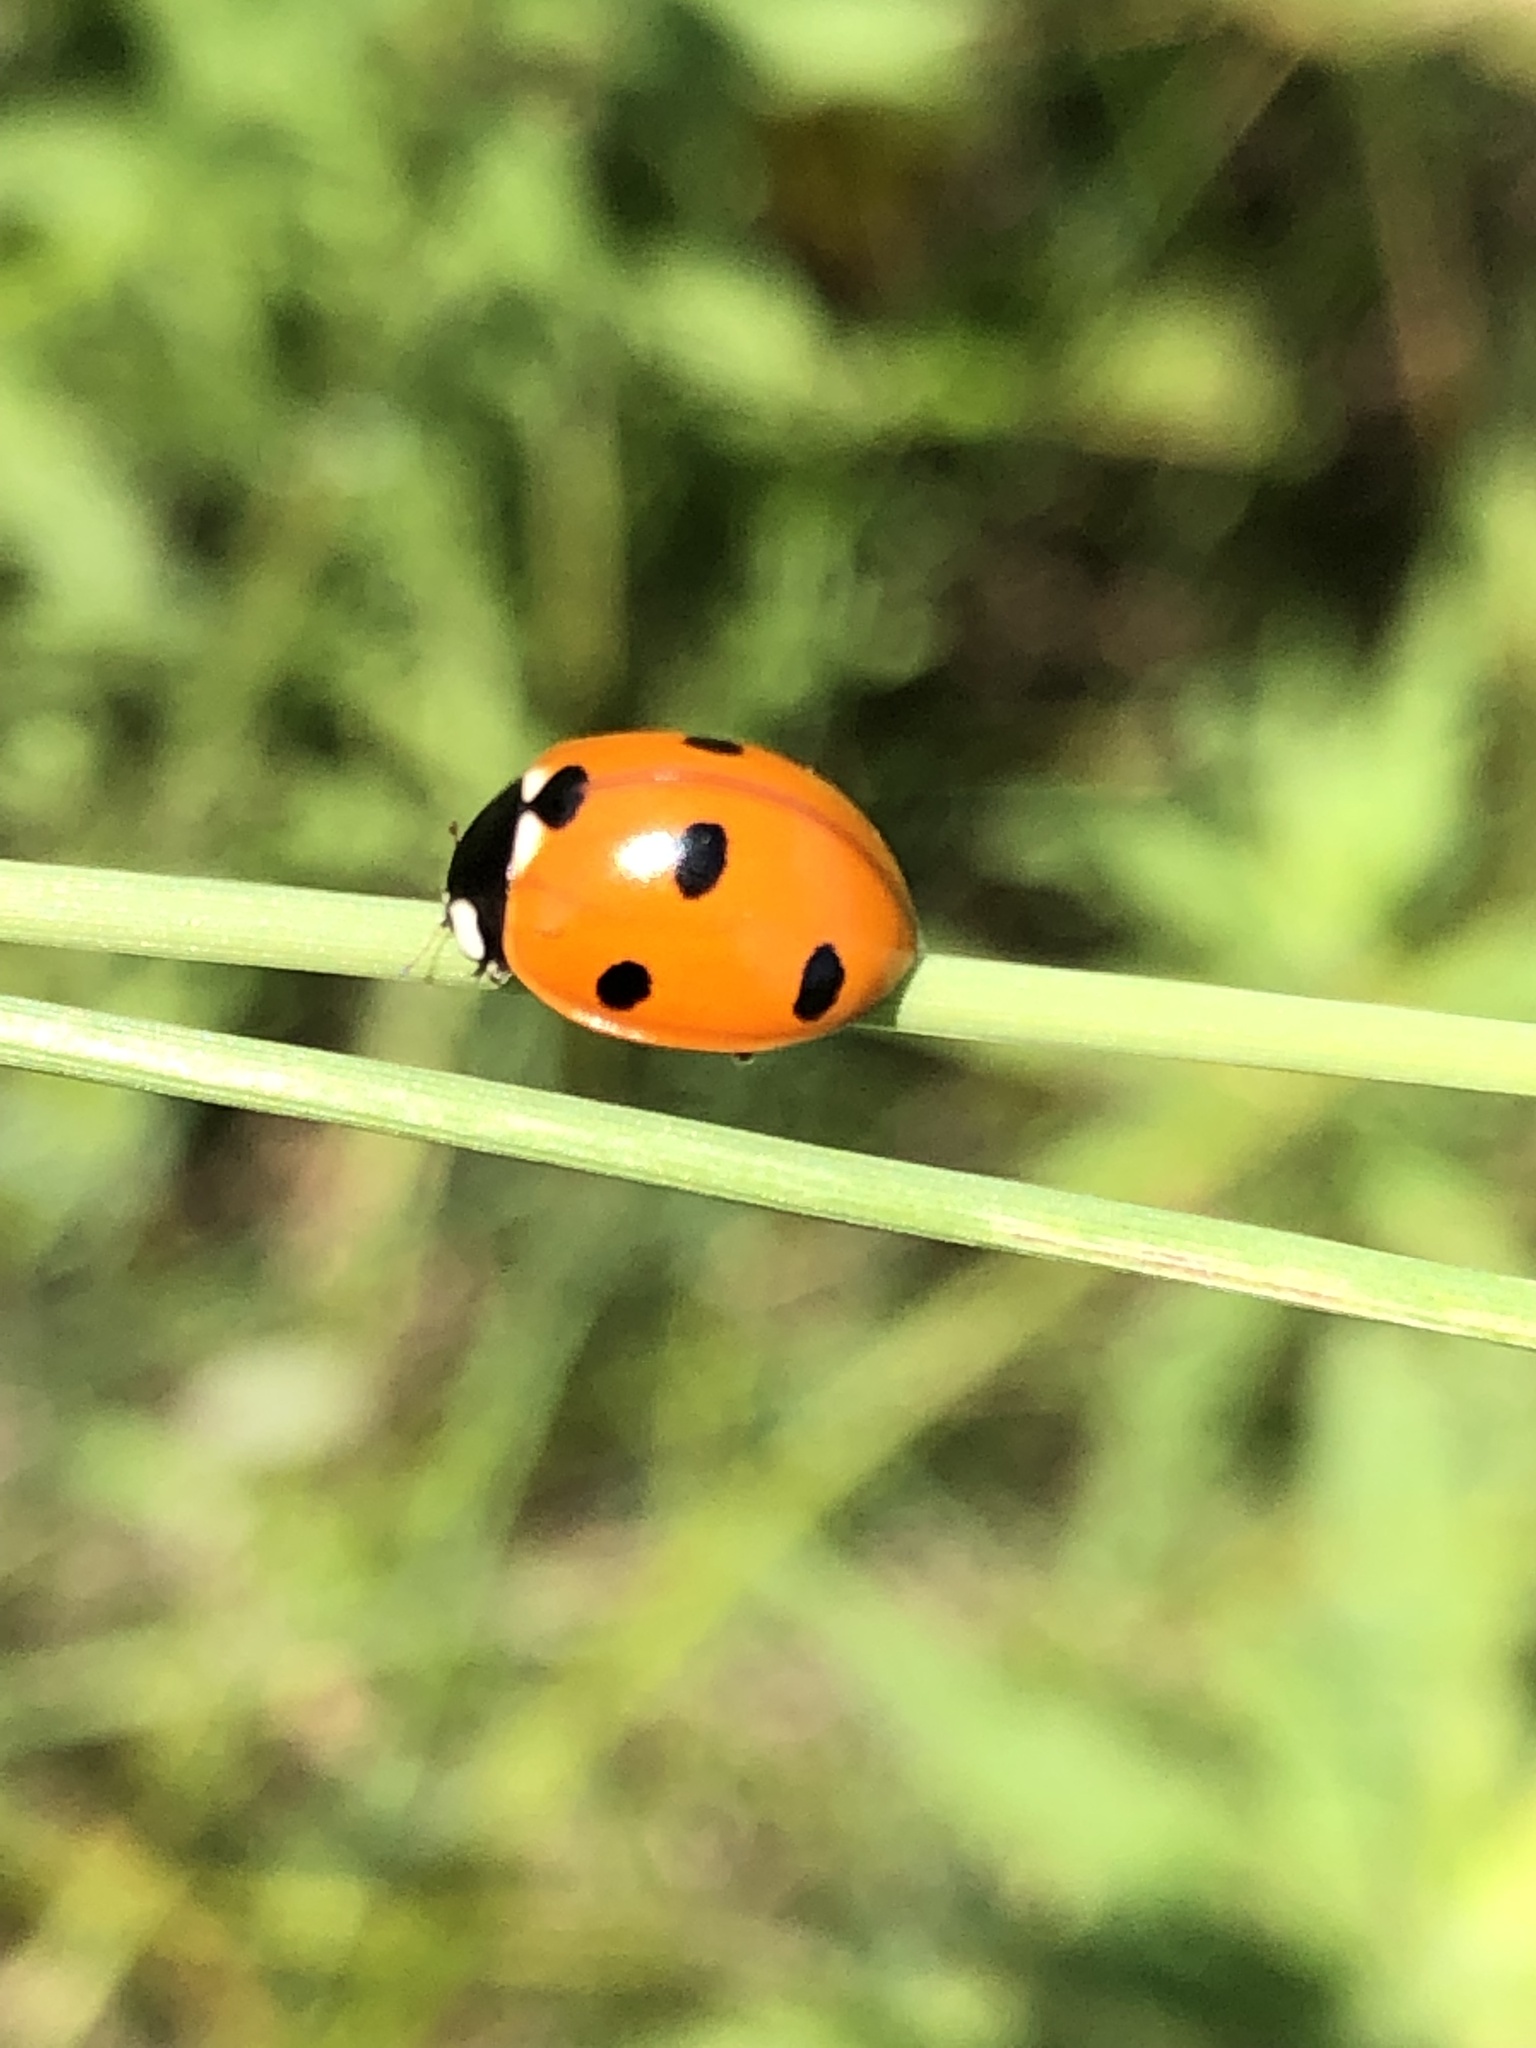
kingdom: Animalia
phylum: Arthropoda
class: Insecta
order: Coleoptera
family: Coccinellidae
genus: Coccinella
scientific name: Coccinella septempunctata
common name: Sevenspotted lady beetle
